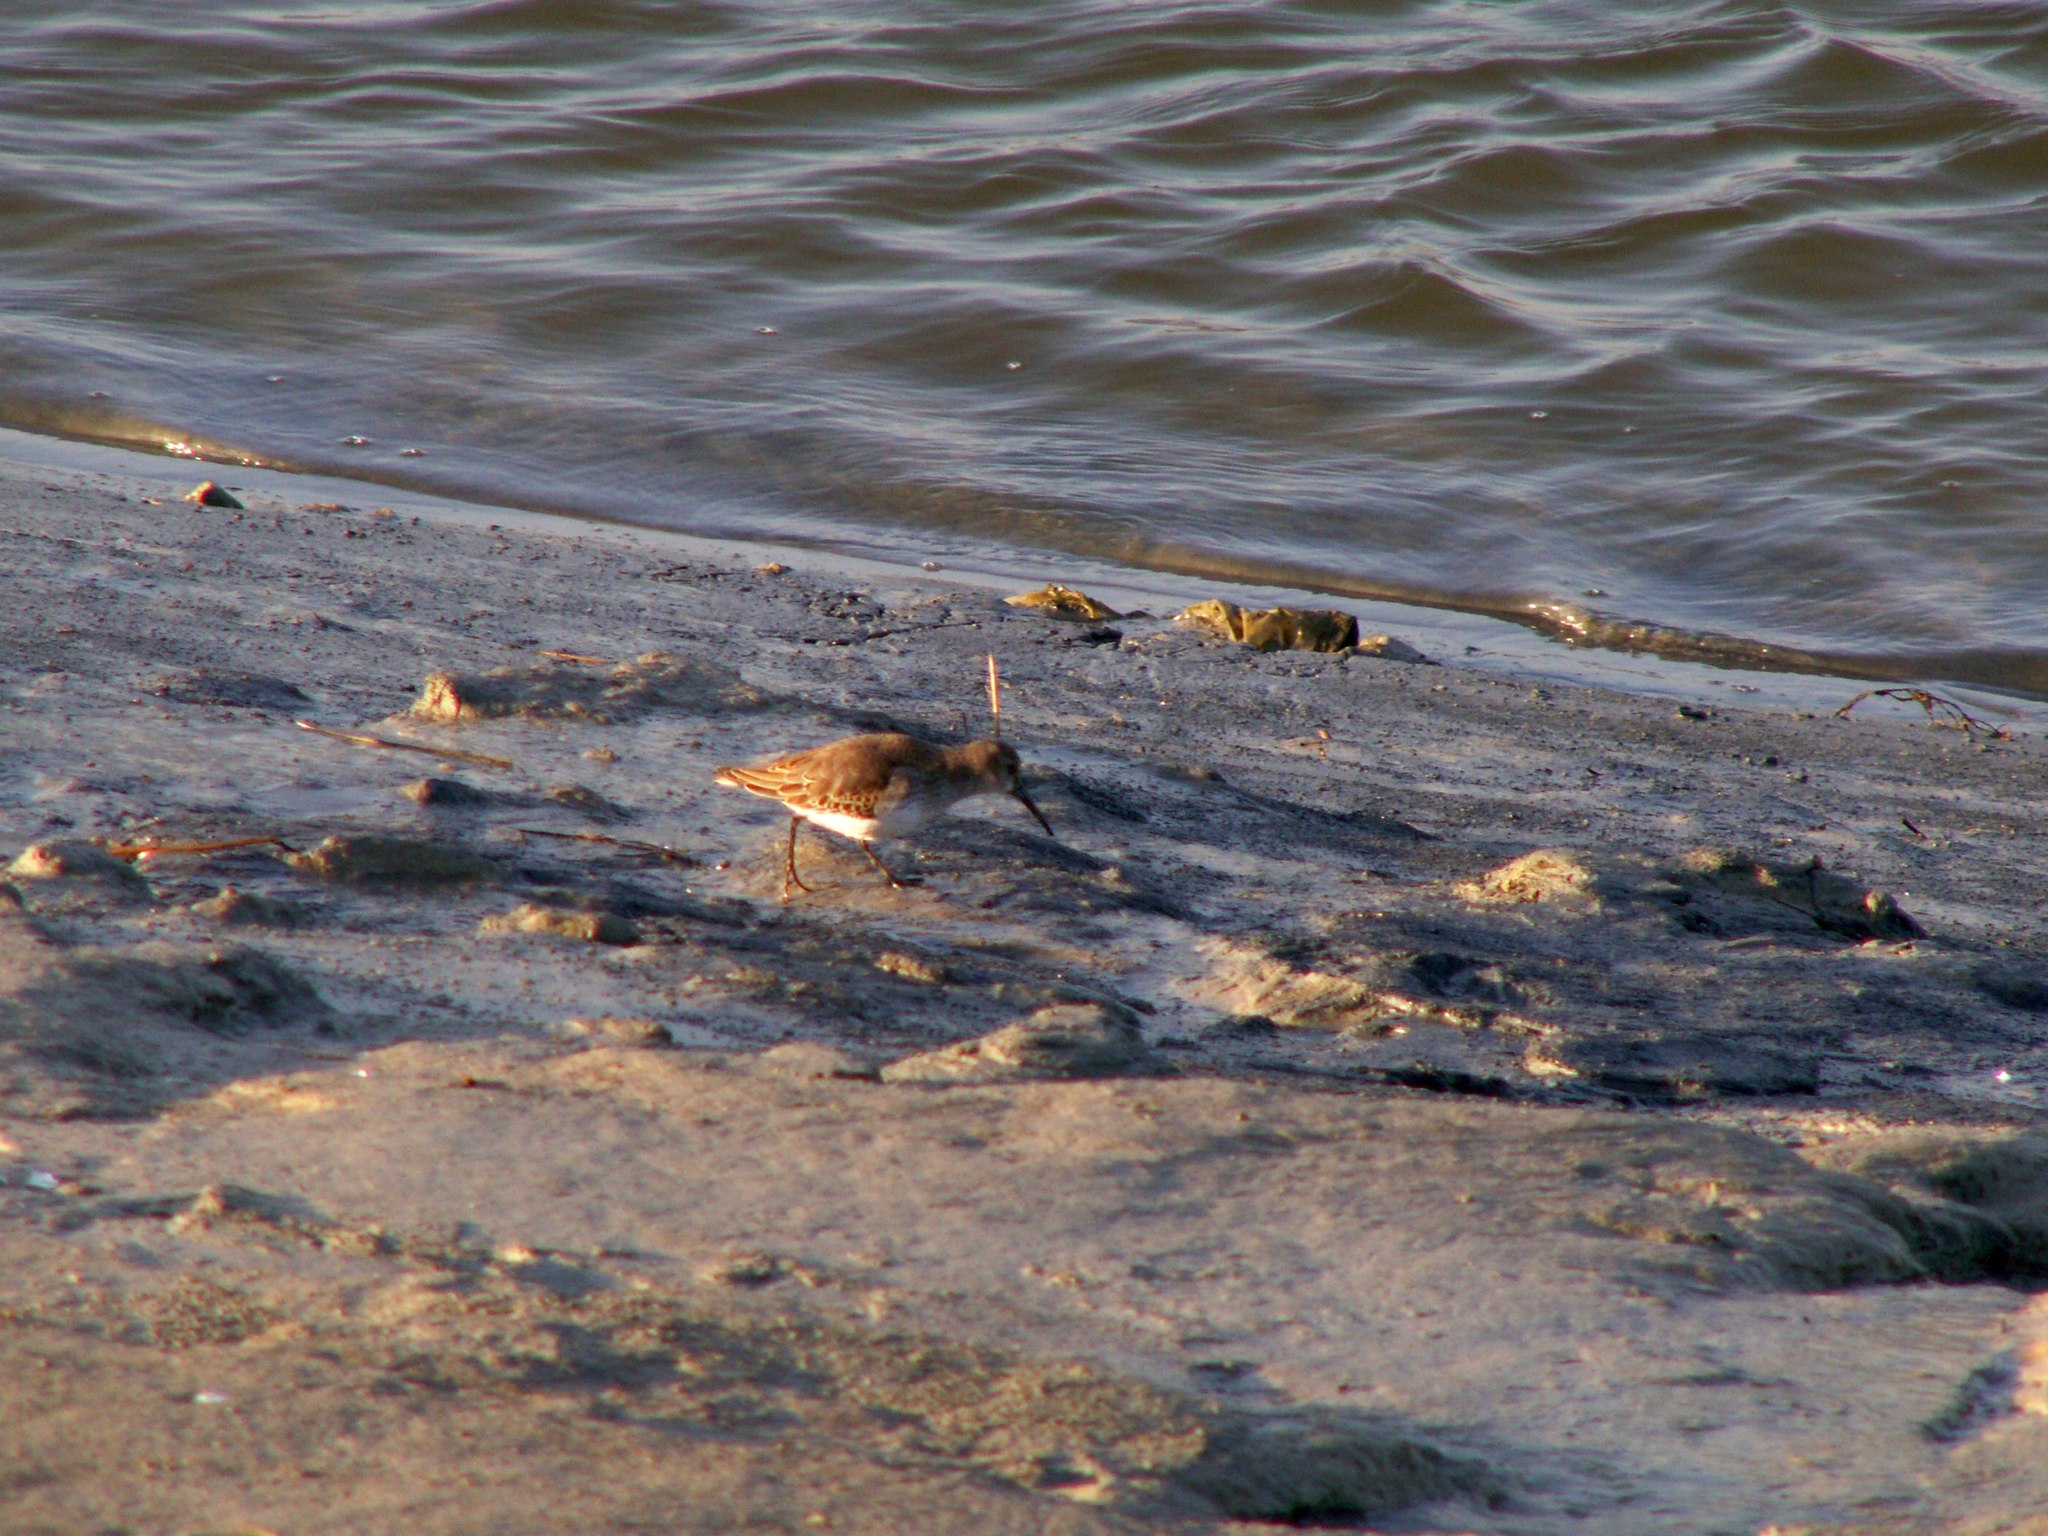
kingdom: Animalia
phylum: Chordata
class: Aves
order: Charadriiformes
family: Scolopacidae
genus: Calidris
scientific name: Calidris alpina
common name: Dunlin
